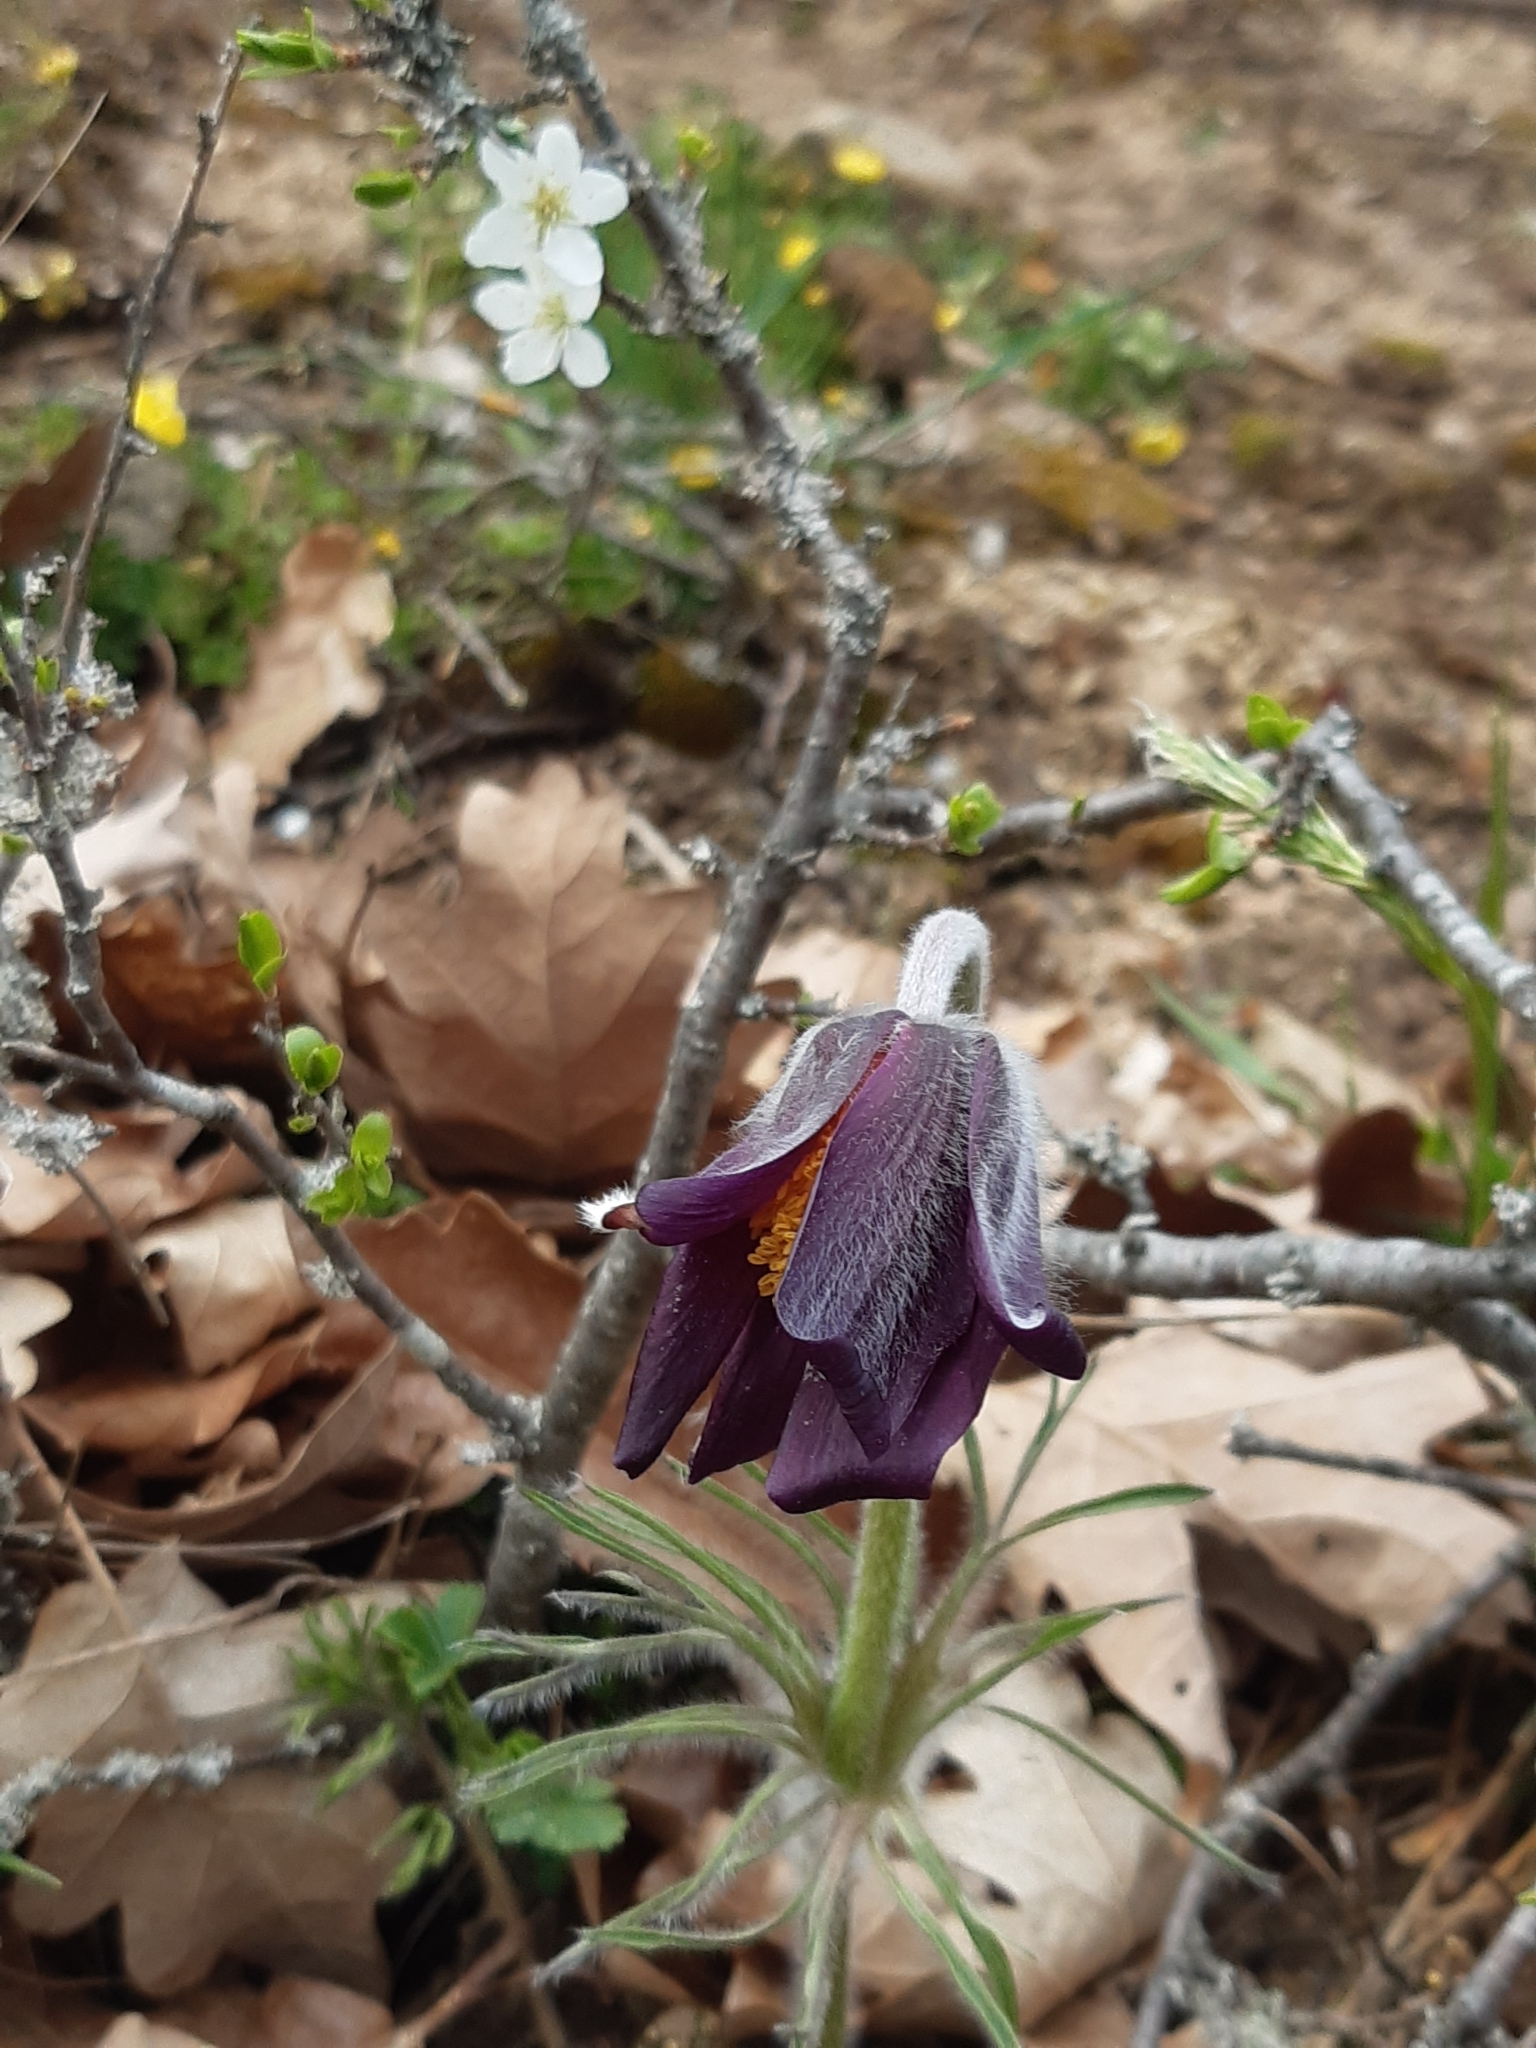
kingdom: Plantae
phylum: Tracheophyta
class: Magnoliopsida
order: Ranunculales
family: Ranunculaceae
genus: Pulsatilla
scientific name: Pulsatilla pratensis
